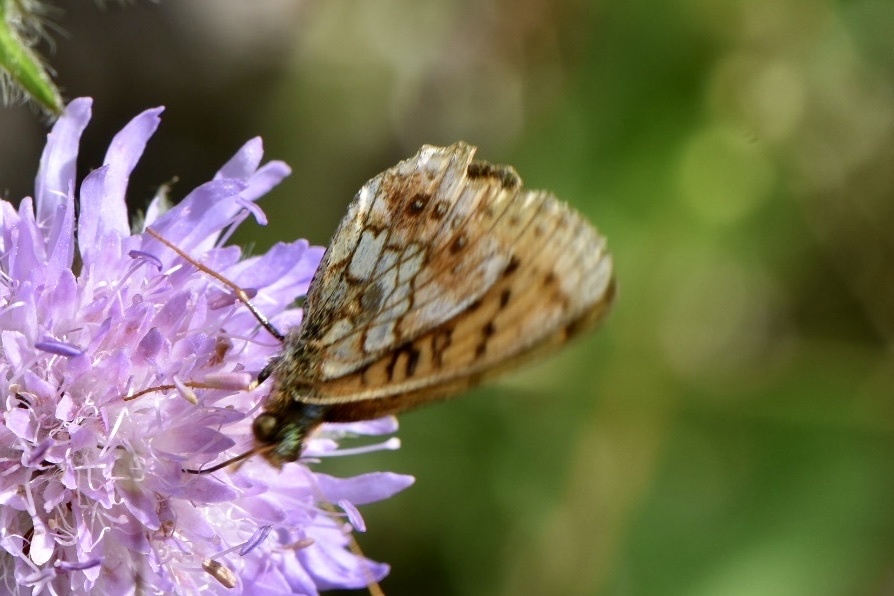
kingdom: Animalia
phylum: Arthropoda
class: Insecta
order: Lepidoptera
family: Nymphalidae
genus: Brenthis
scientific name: Brenthis ino
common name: Lesser marbled fritillary
